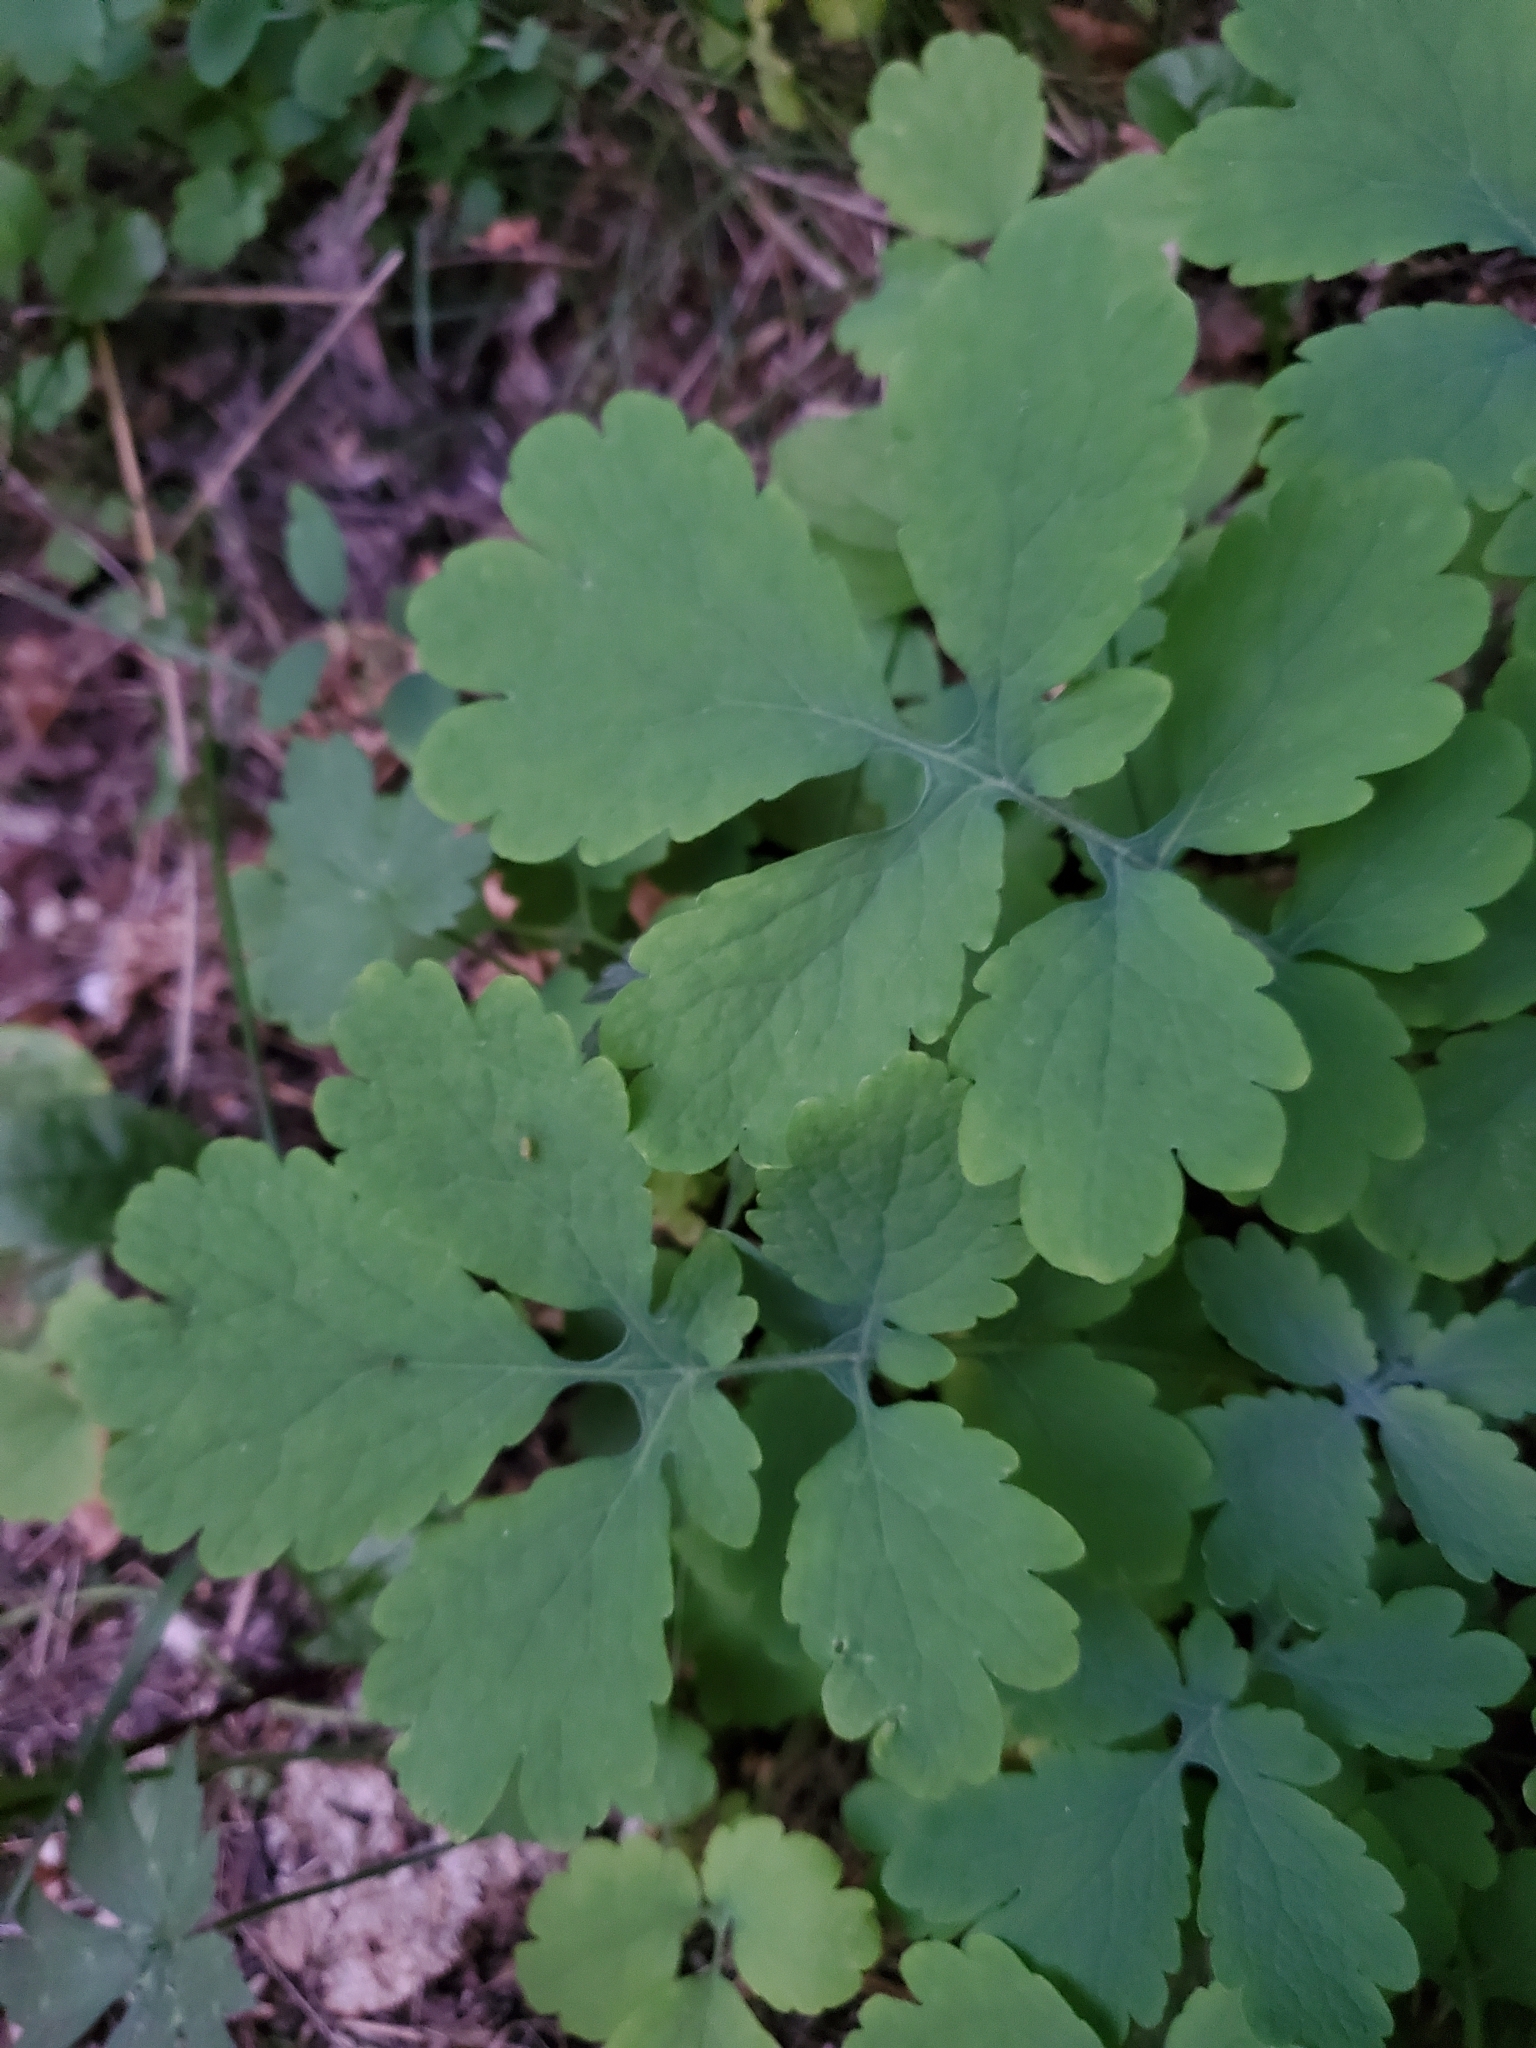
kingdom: Plantae
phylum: Tracheophyta
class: Magnoliopsida
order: Ranunculales
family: Papaveraceae
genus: Chelidonium
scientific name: Chelidonium majus
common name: Greater celandine
